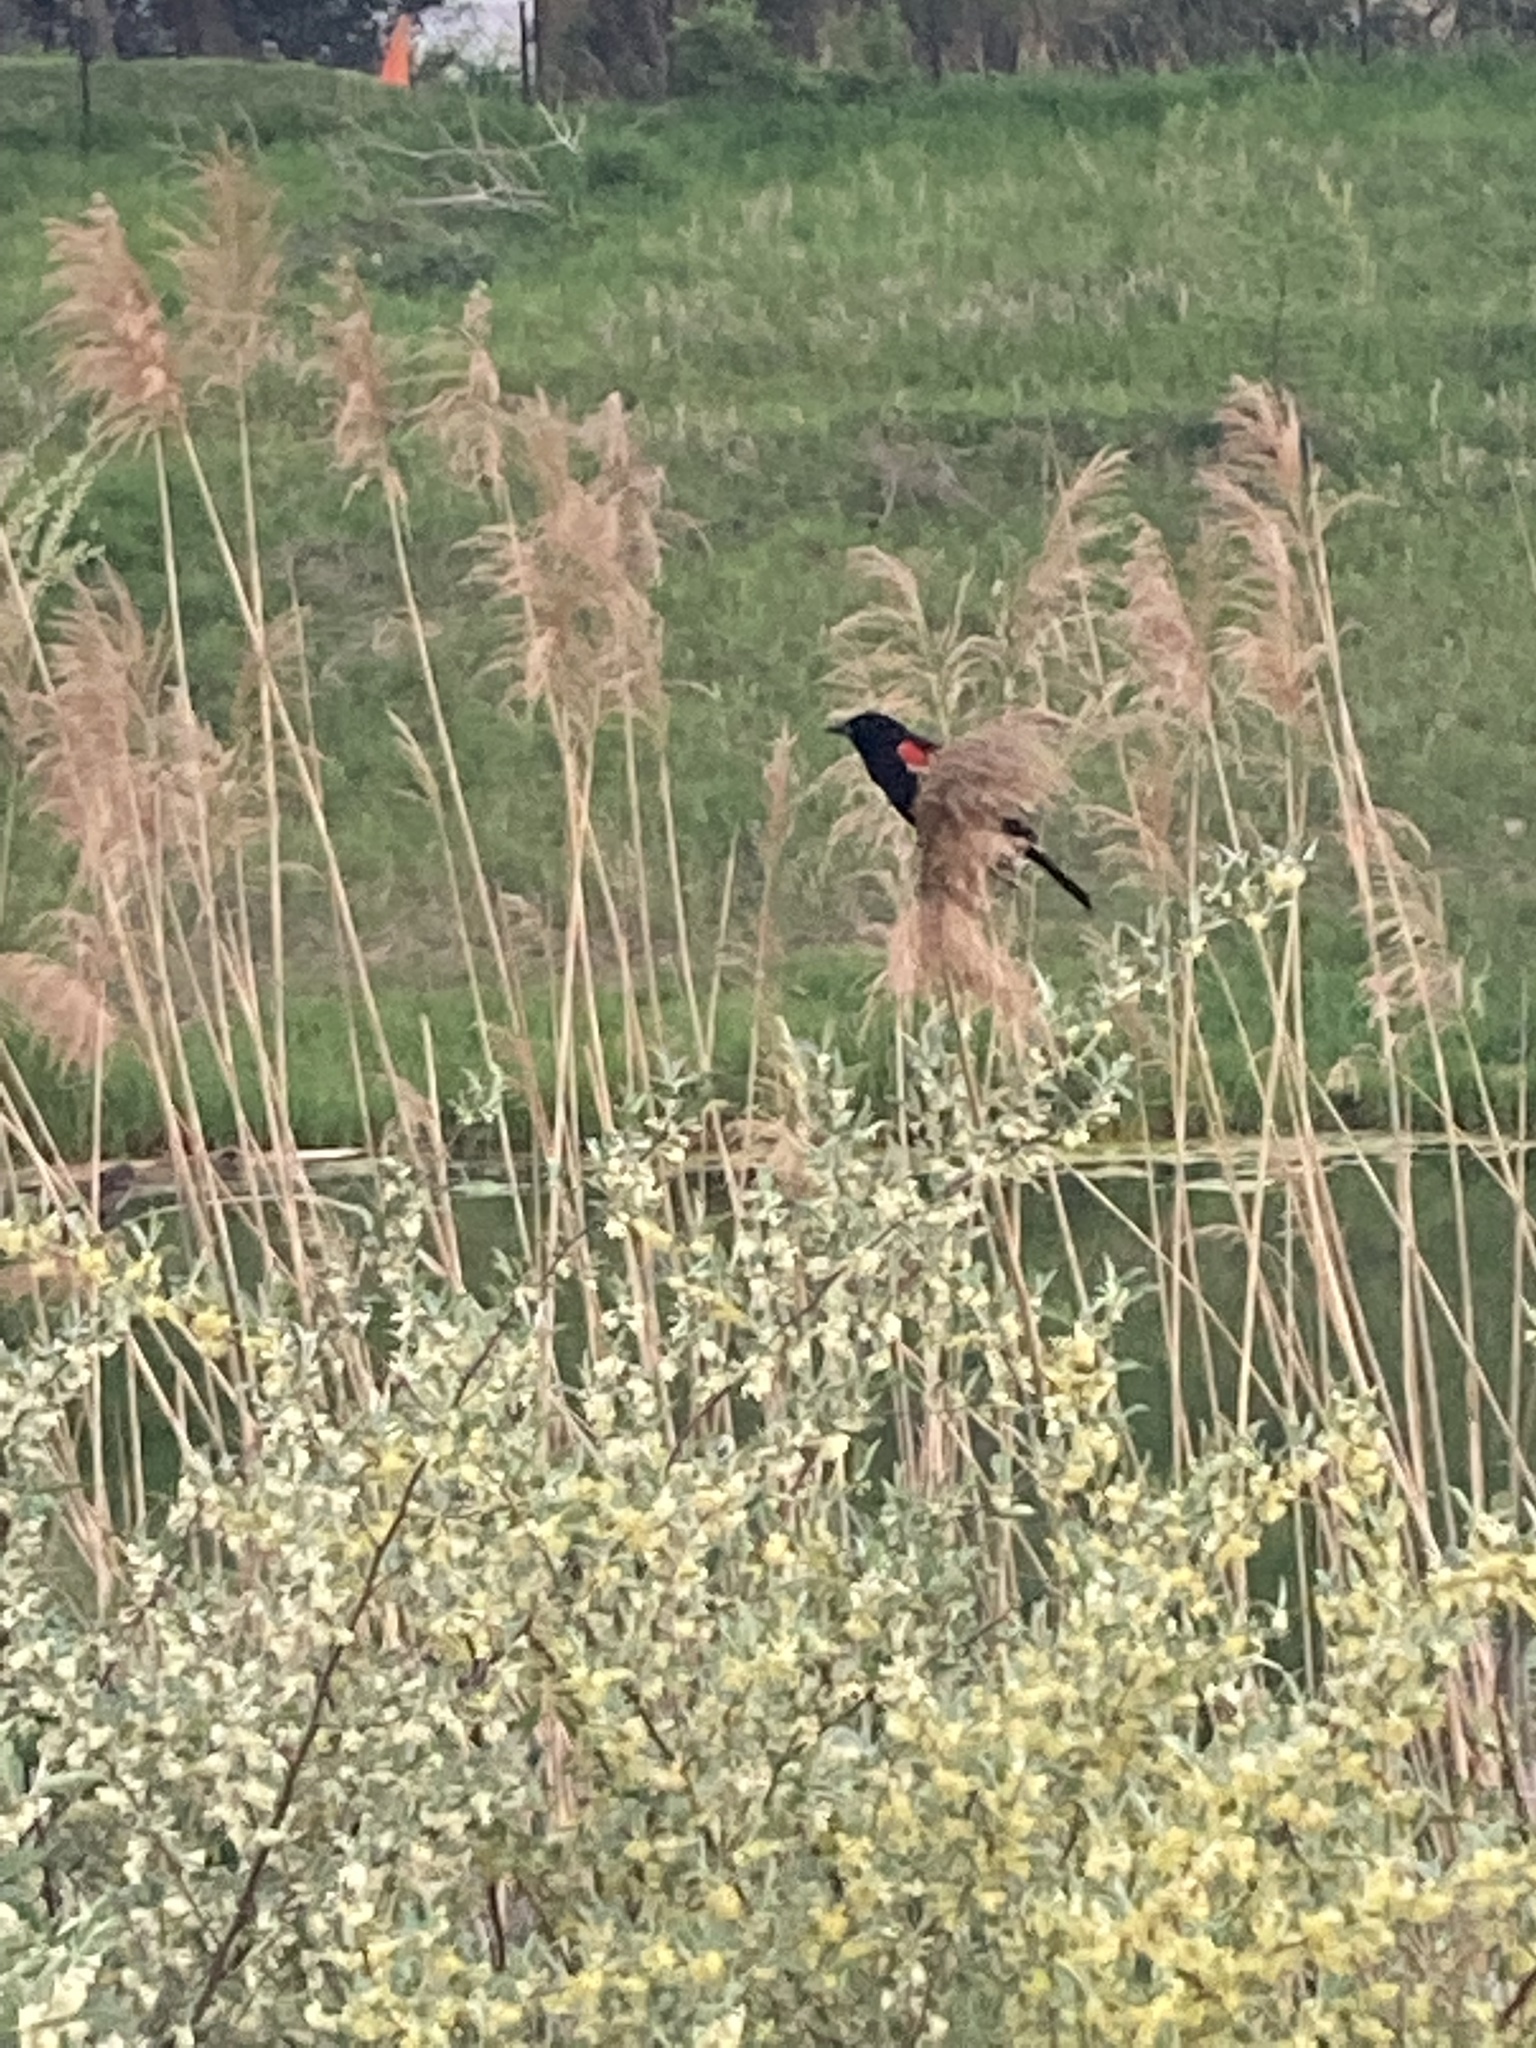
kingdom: Animalia
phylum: Chordata
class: Aves
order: Passeriformes
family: Icteridae
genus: Agelaius
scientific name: Agelaius phoeniceus
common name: Red-winged blackbird
